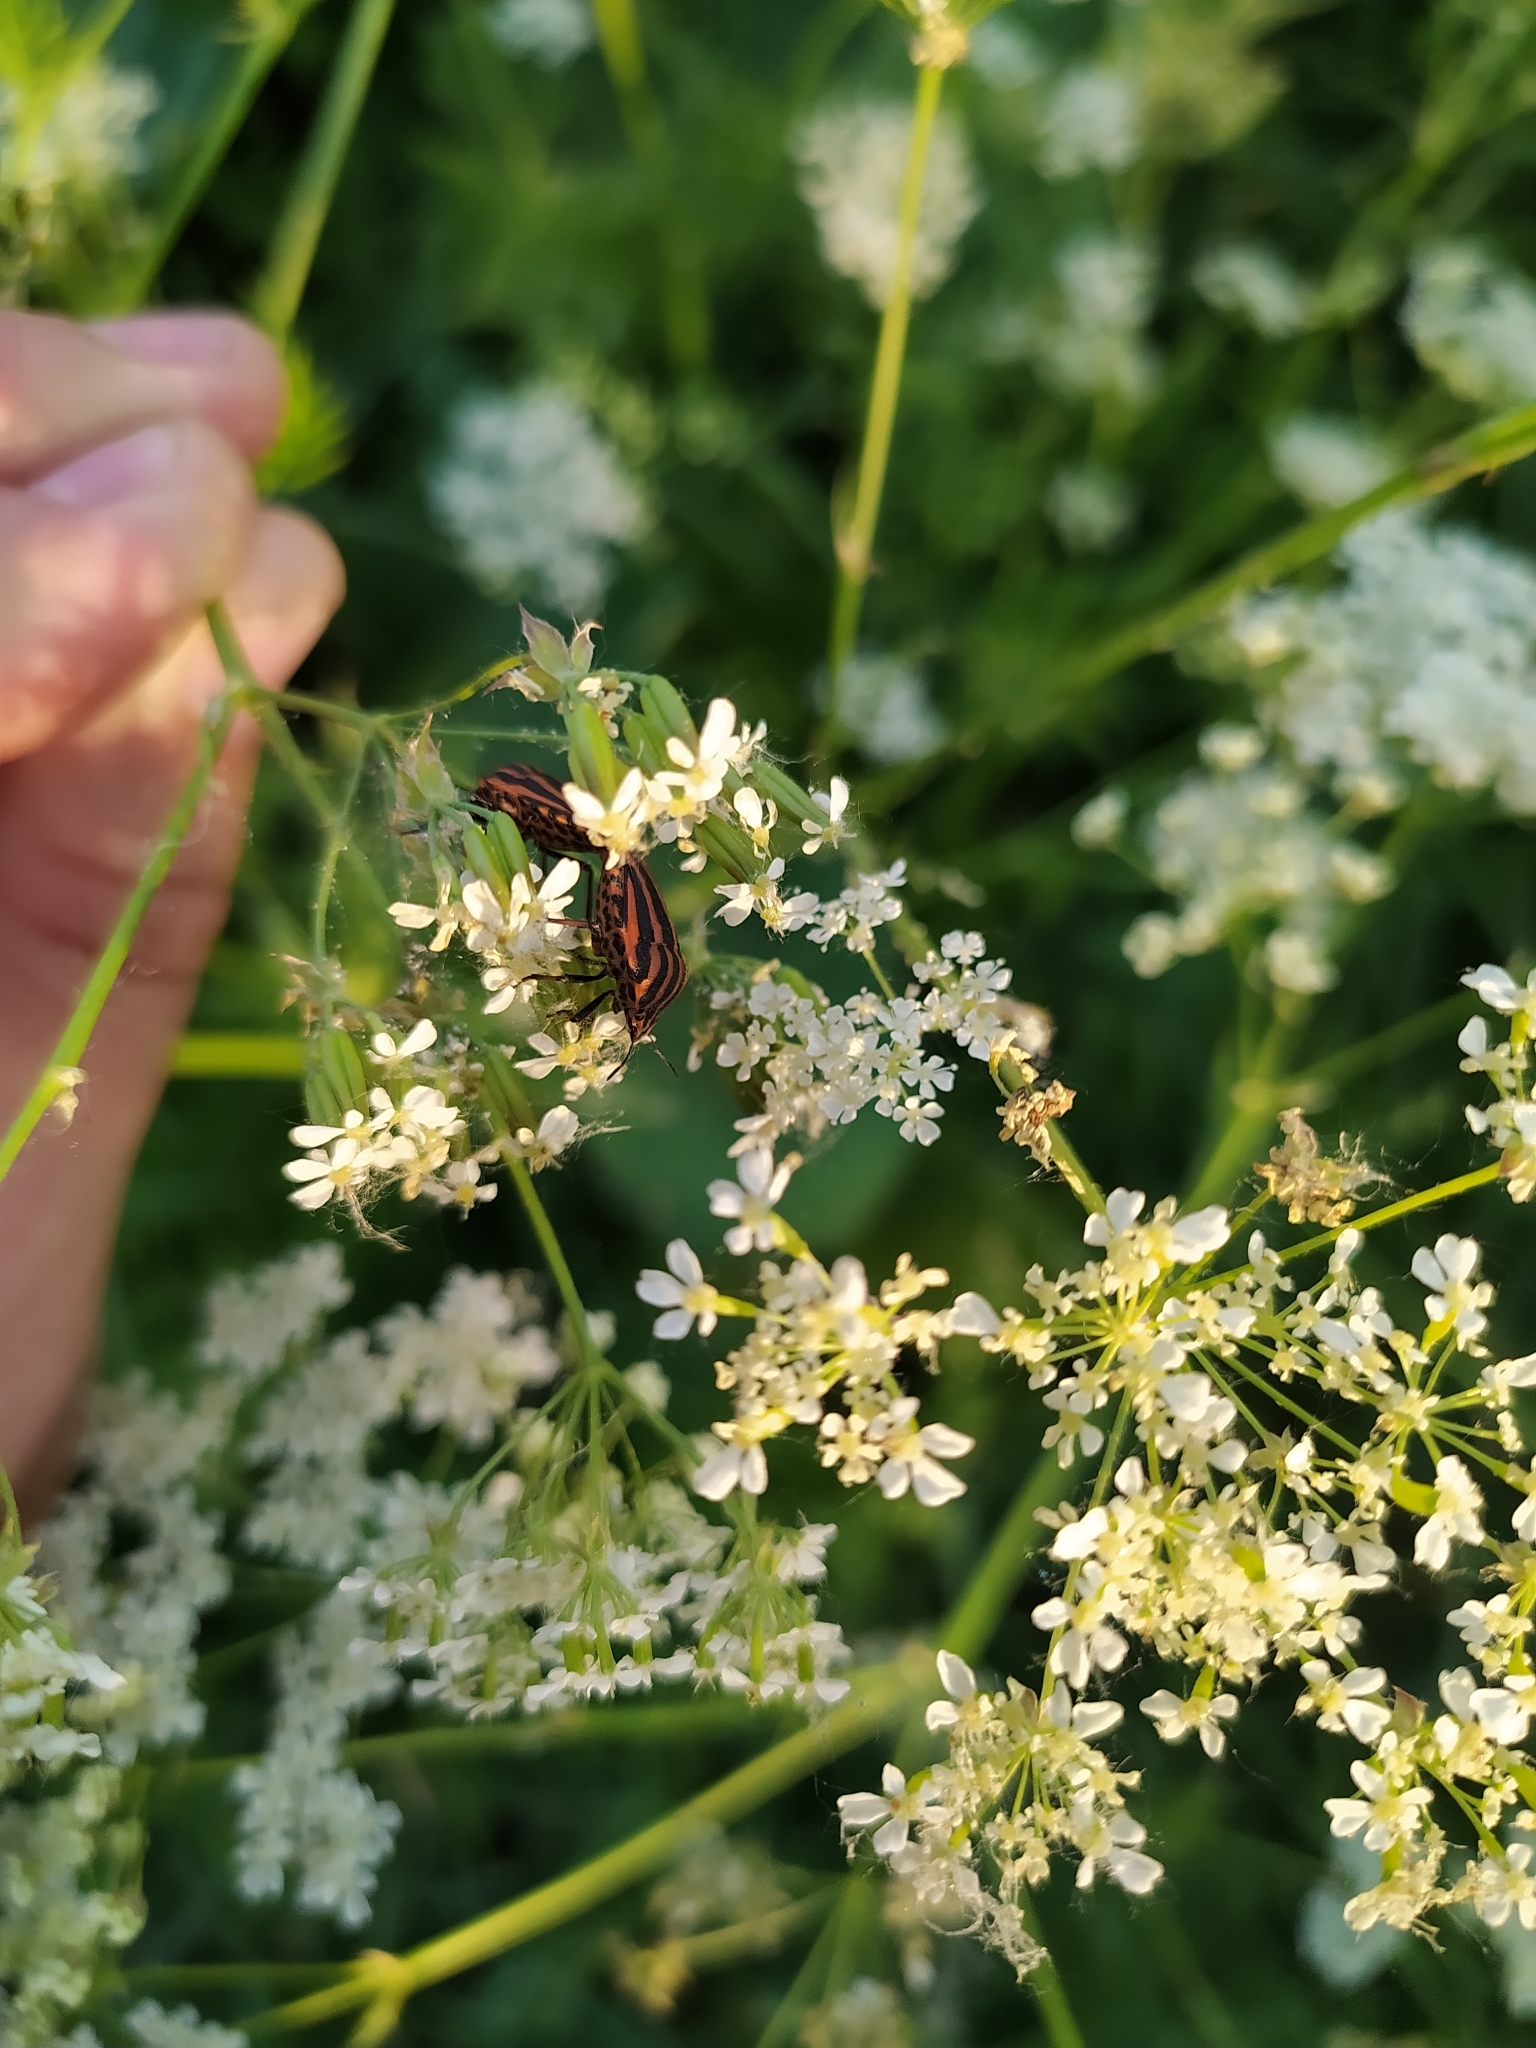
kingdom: Animalia
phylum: Arthropoda
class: Insecta
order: Hemiptera
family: Pentatomidae
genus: Graphosoma
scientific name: Graphosoma italicum
